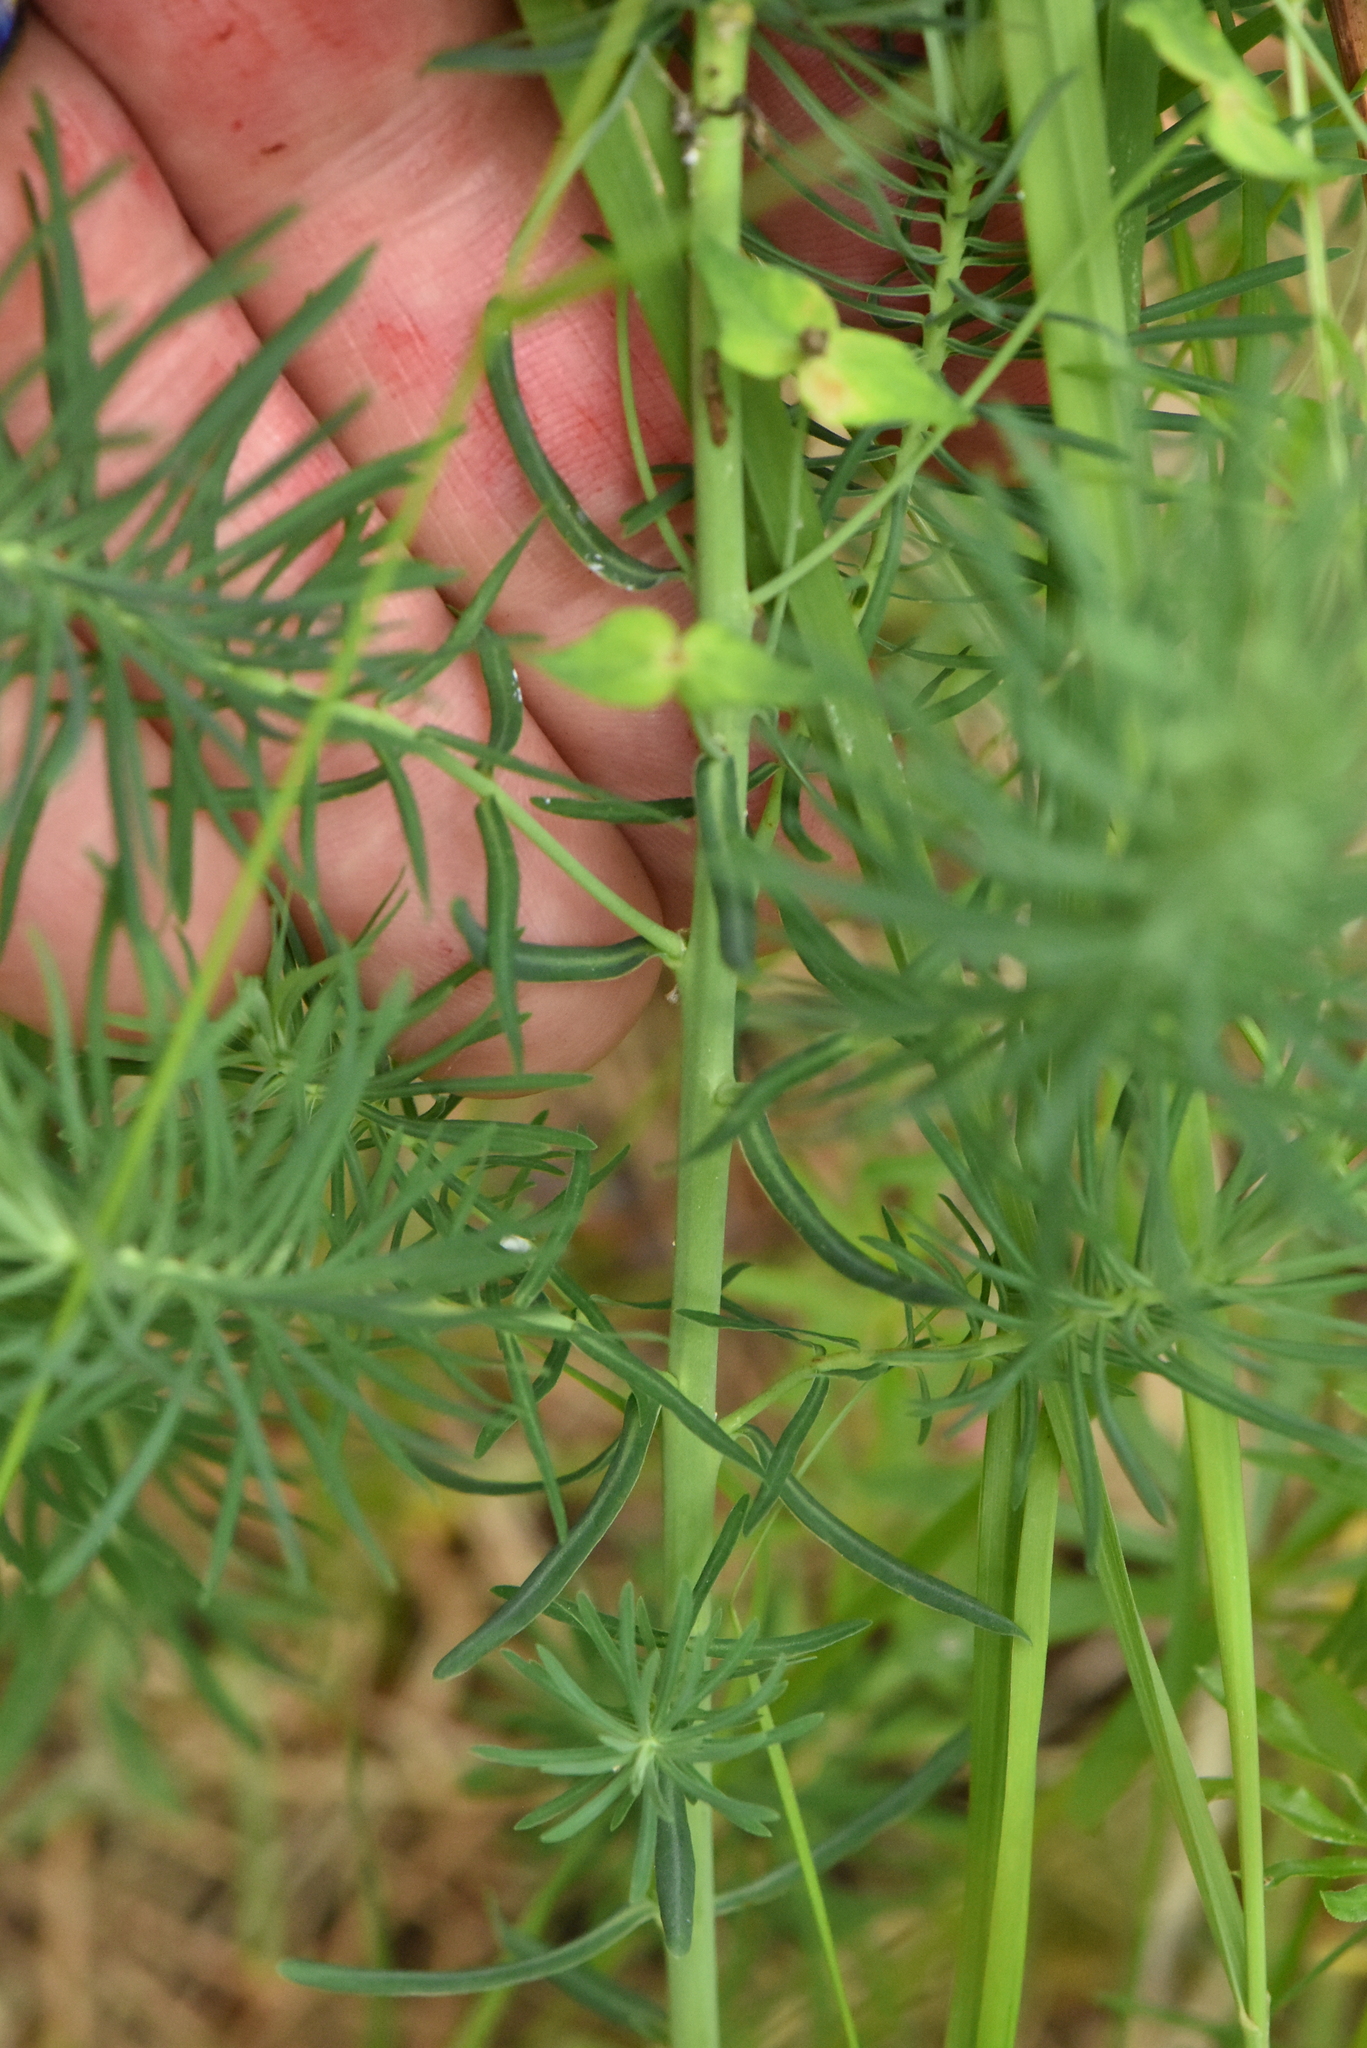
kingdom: Plantae
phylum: Tracheophyta
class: Magnoliopsida
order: Malpighiales
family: Euphorbiaceae
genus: Euphorbia
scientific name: Euphorbia cyparissias
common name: Cypress spurge
